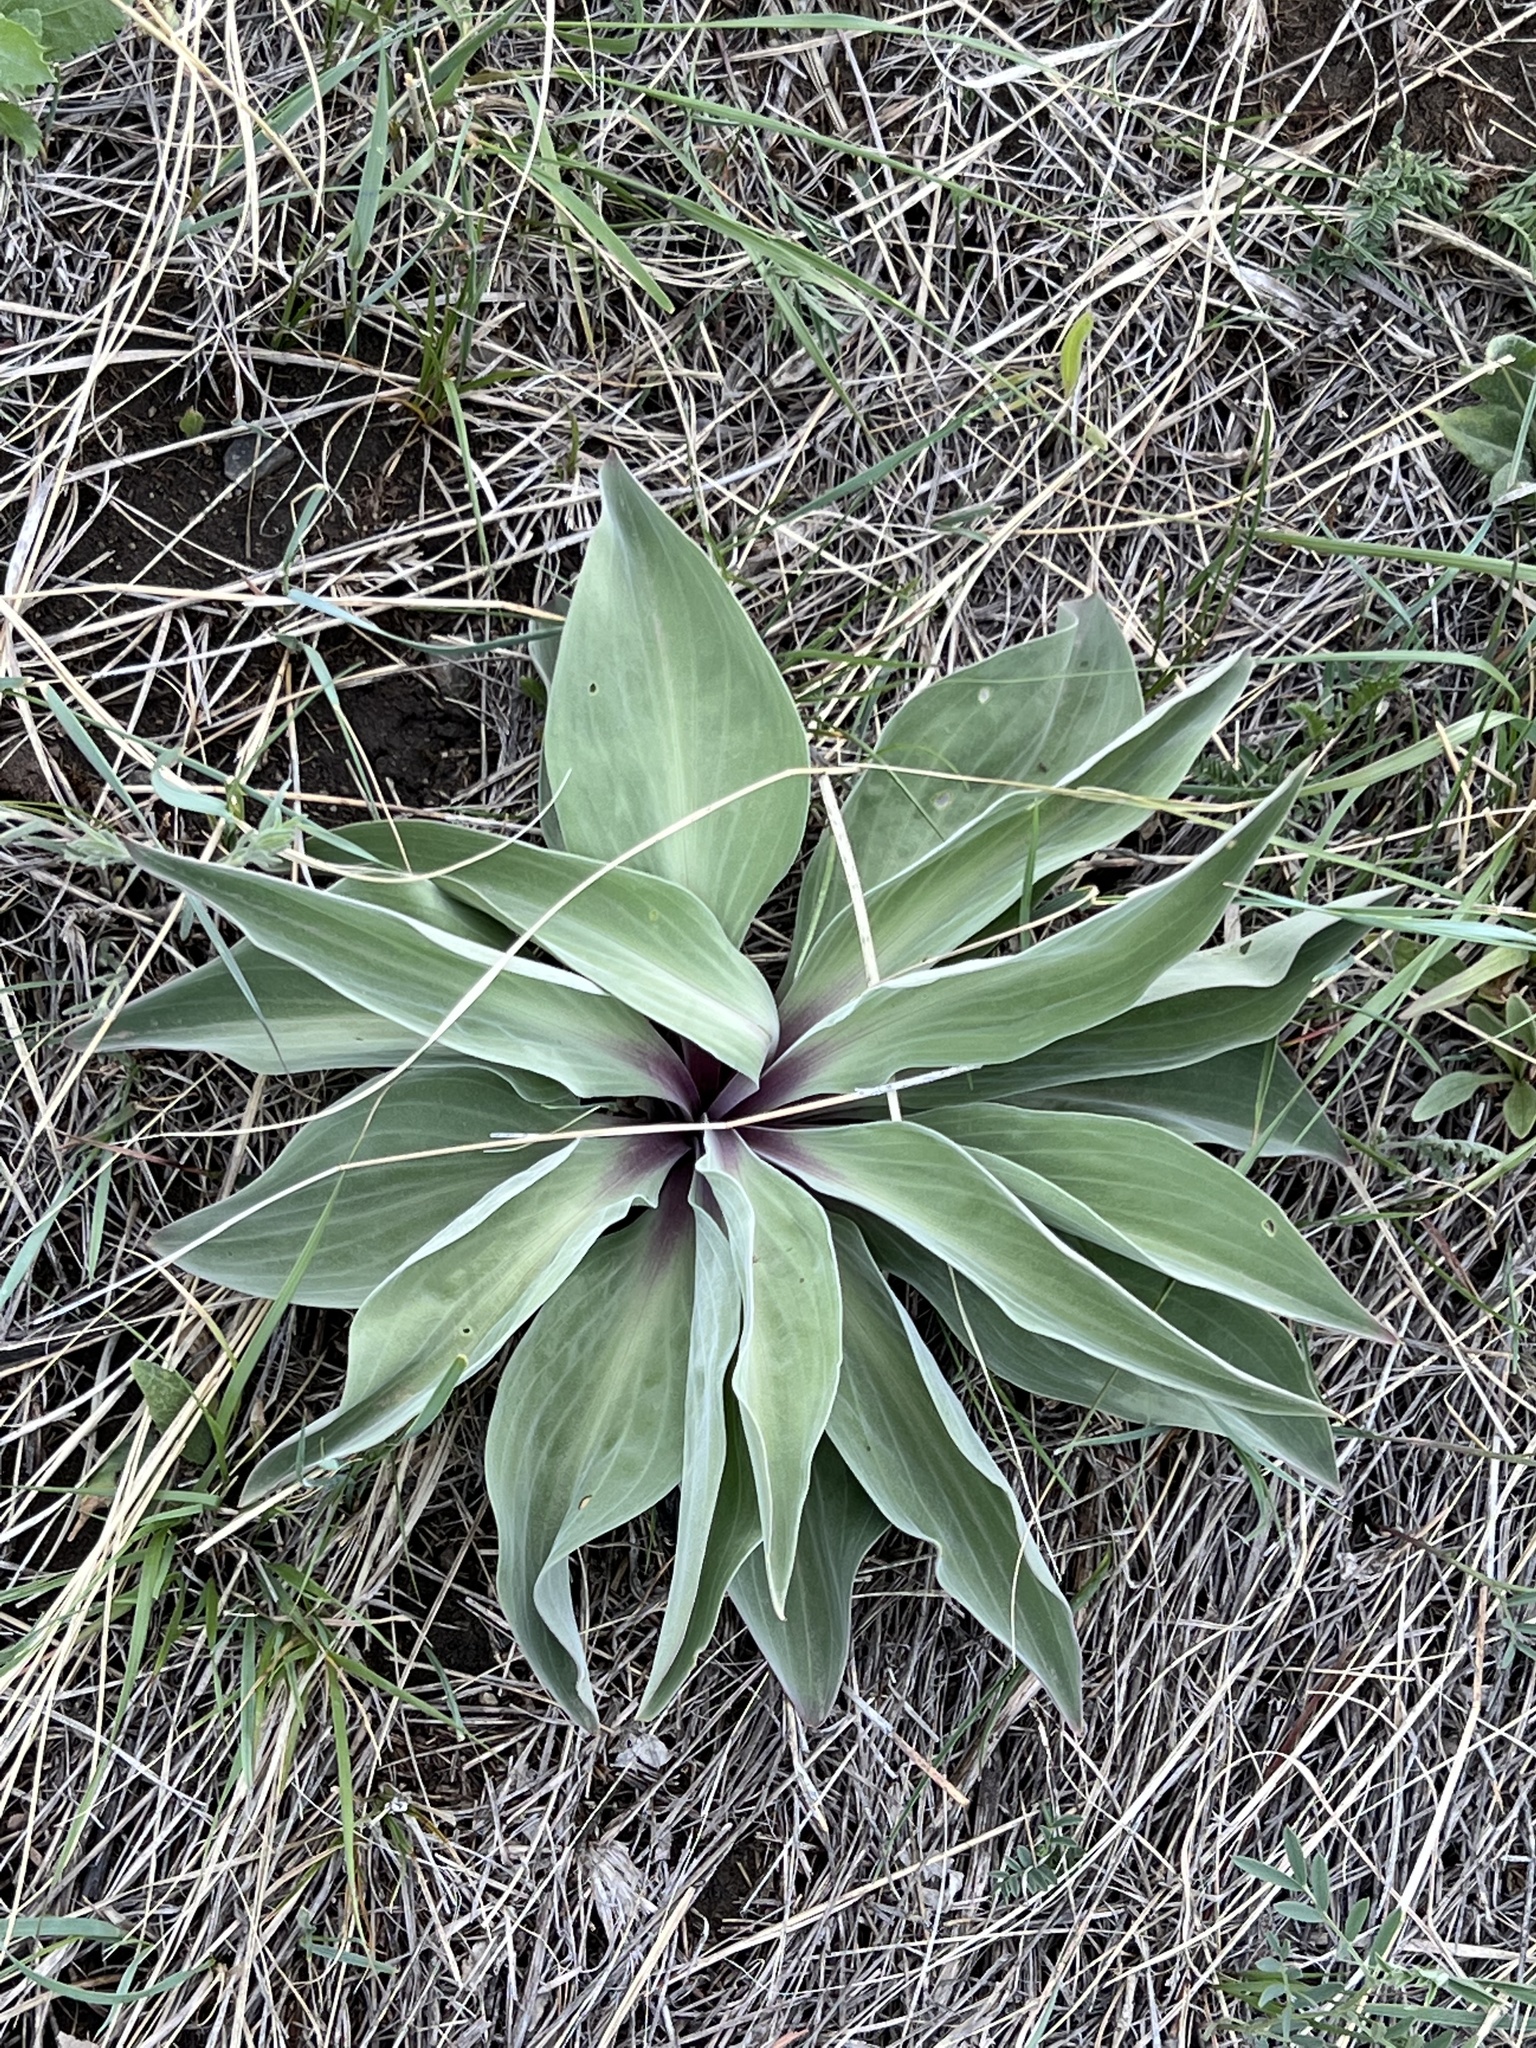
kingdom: Plantae
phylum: Tracheophyta
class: Magnoliopsida
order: Gentianales
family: Gentianaceae
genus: Frasera
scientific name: Frasera speciosa
